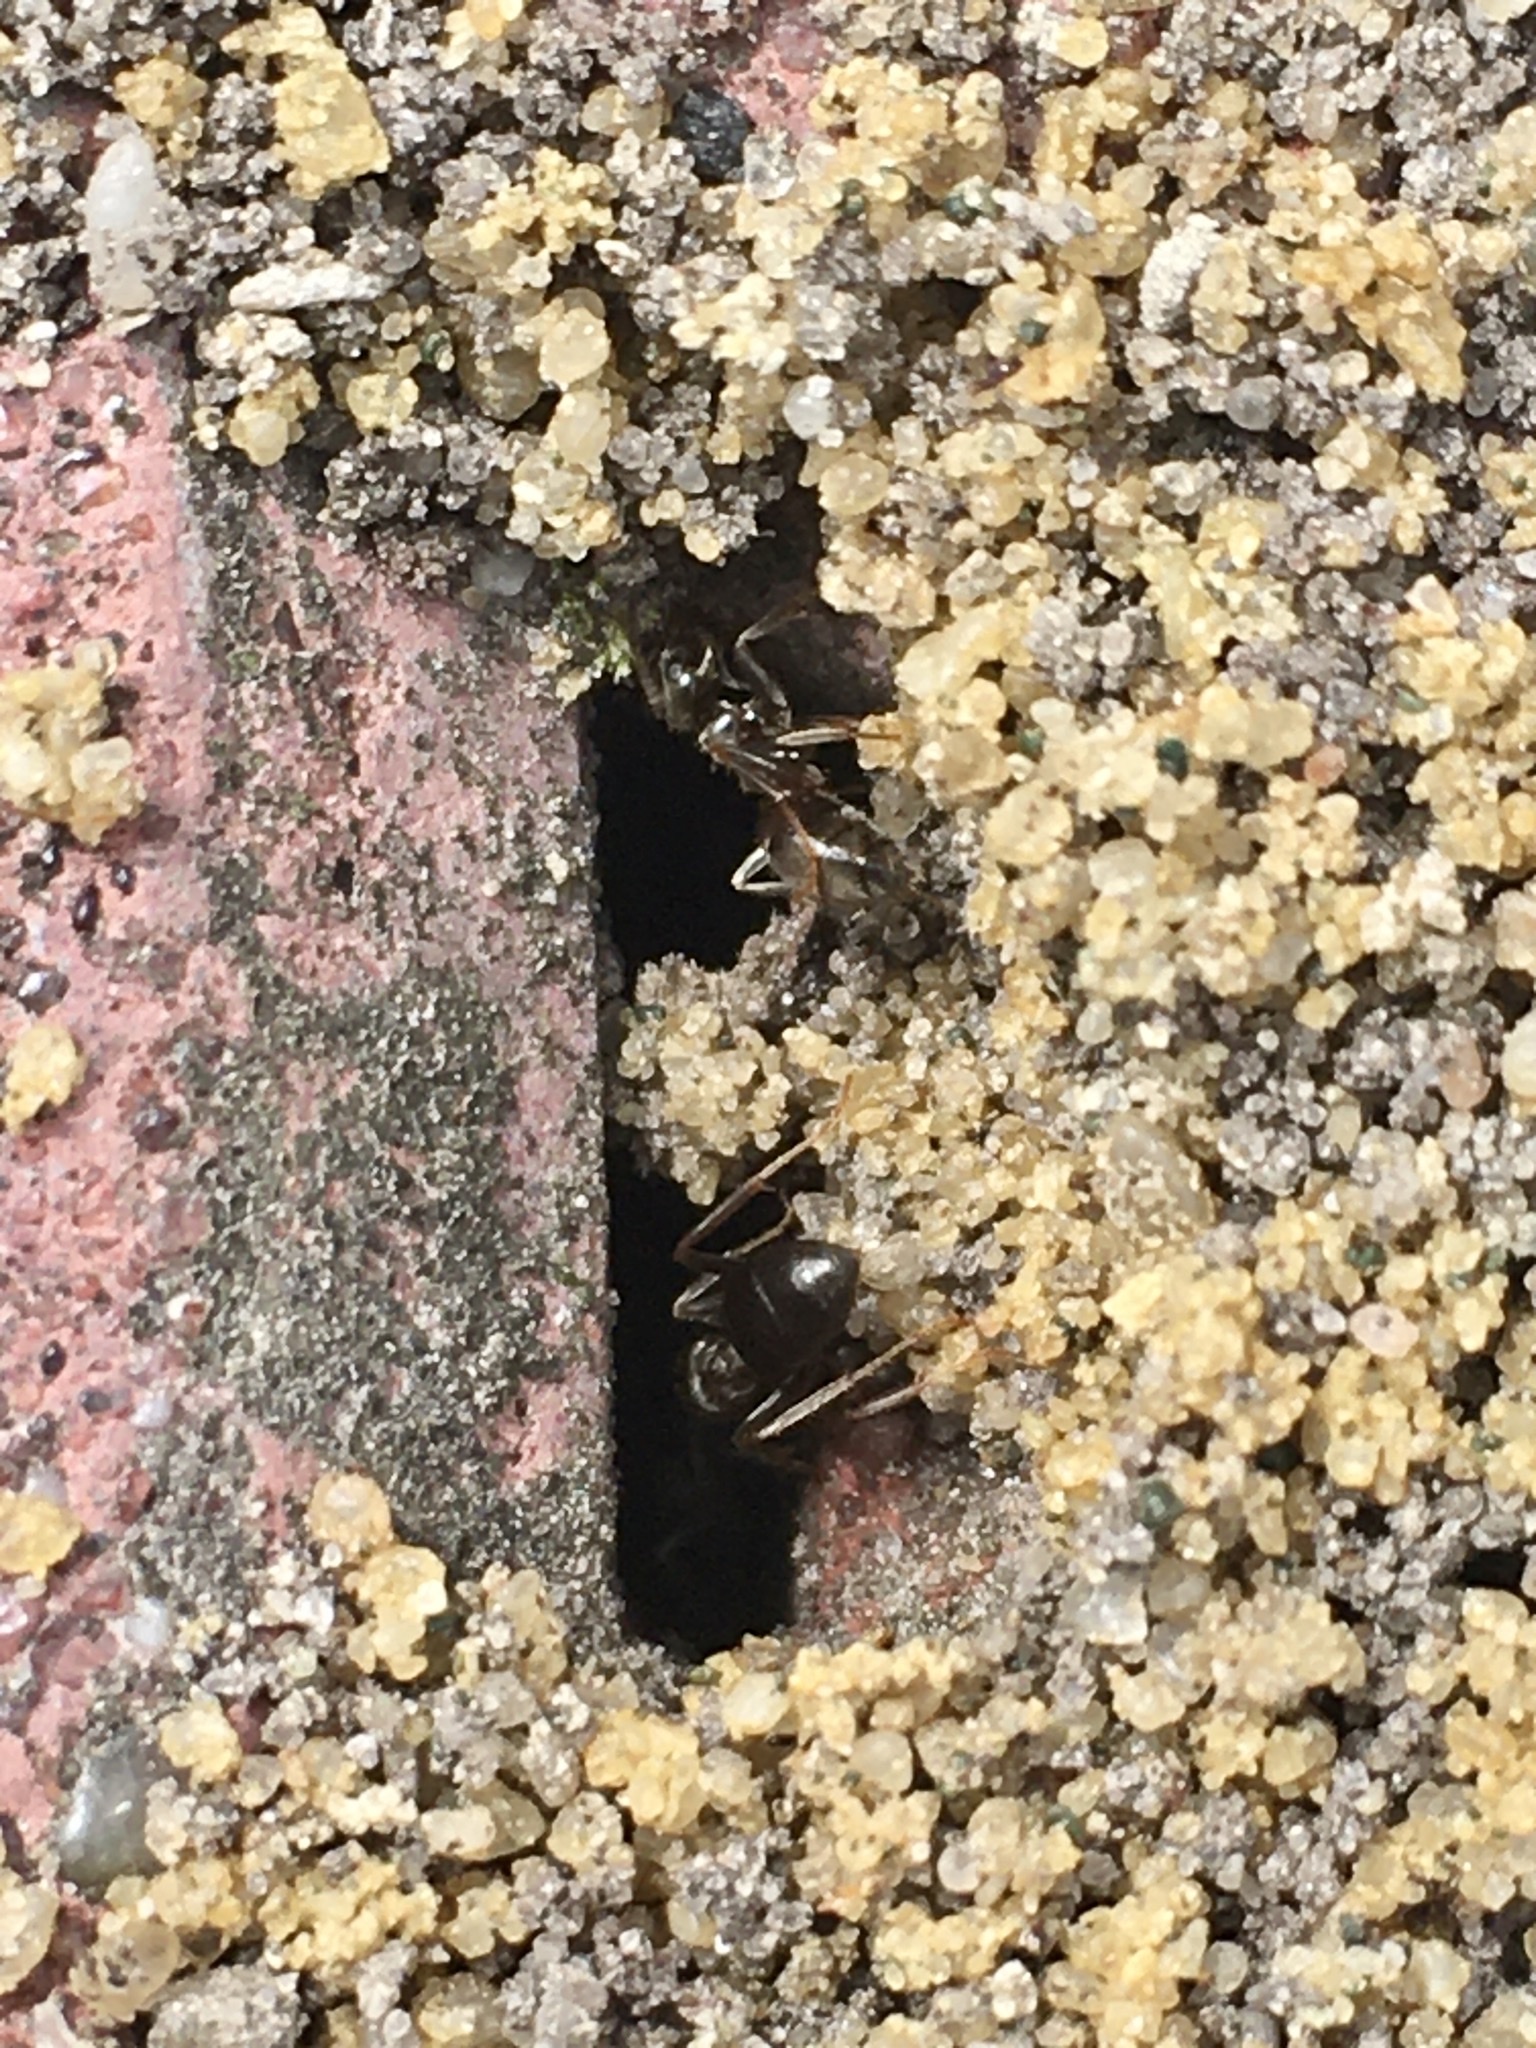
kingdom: Animalia
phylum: Arthropoda
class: Insecta
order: Hymenoptera
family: Formicidae
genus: Lasius
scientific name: Lasius niger
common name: Small black ant
